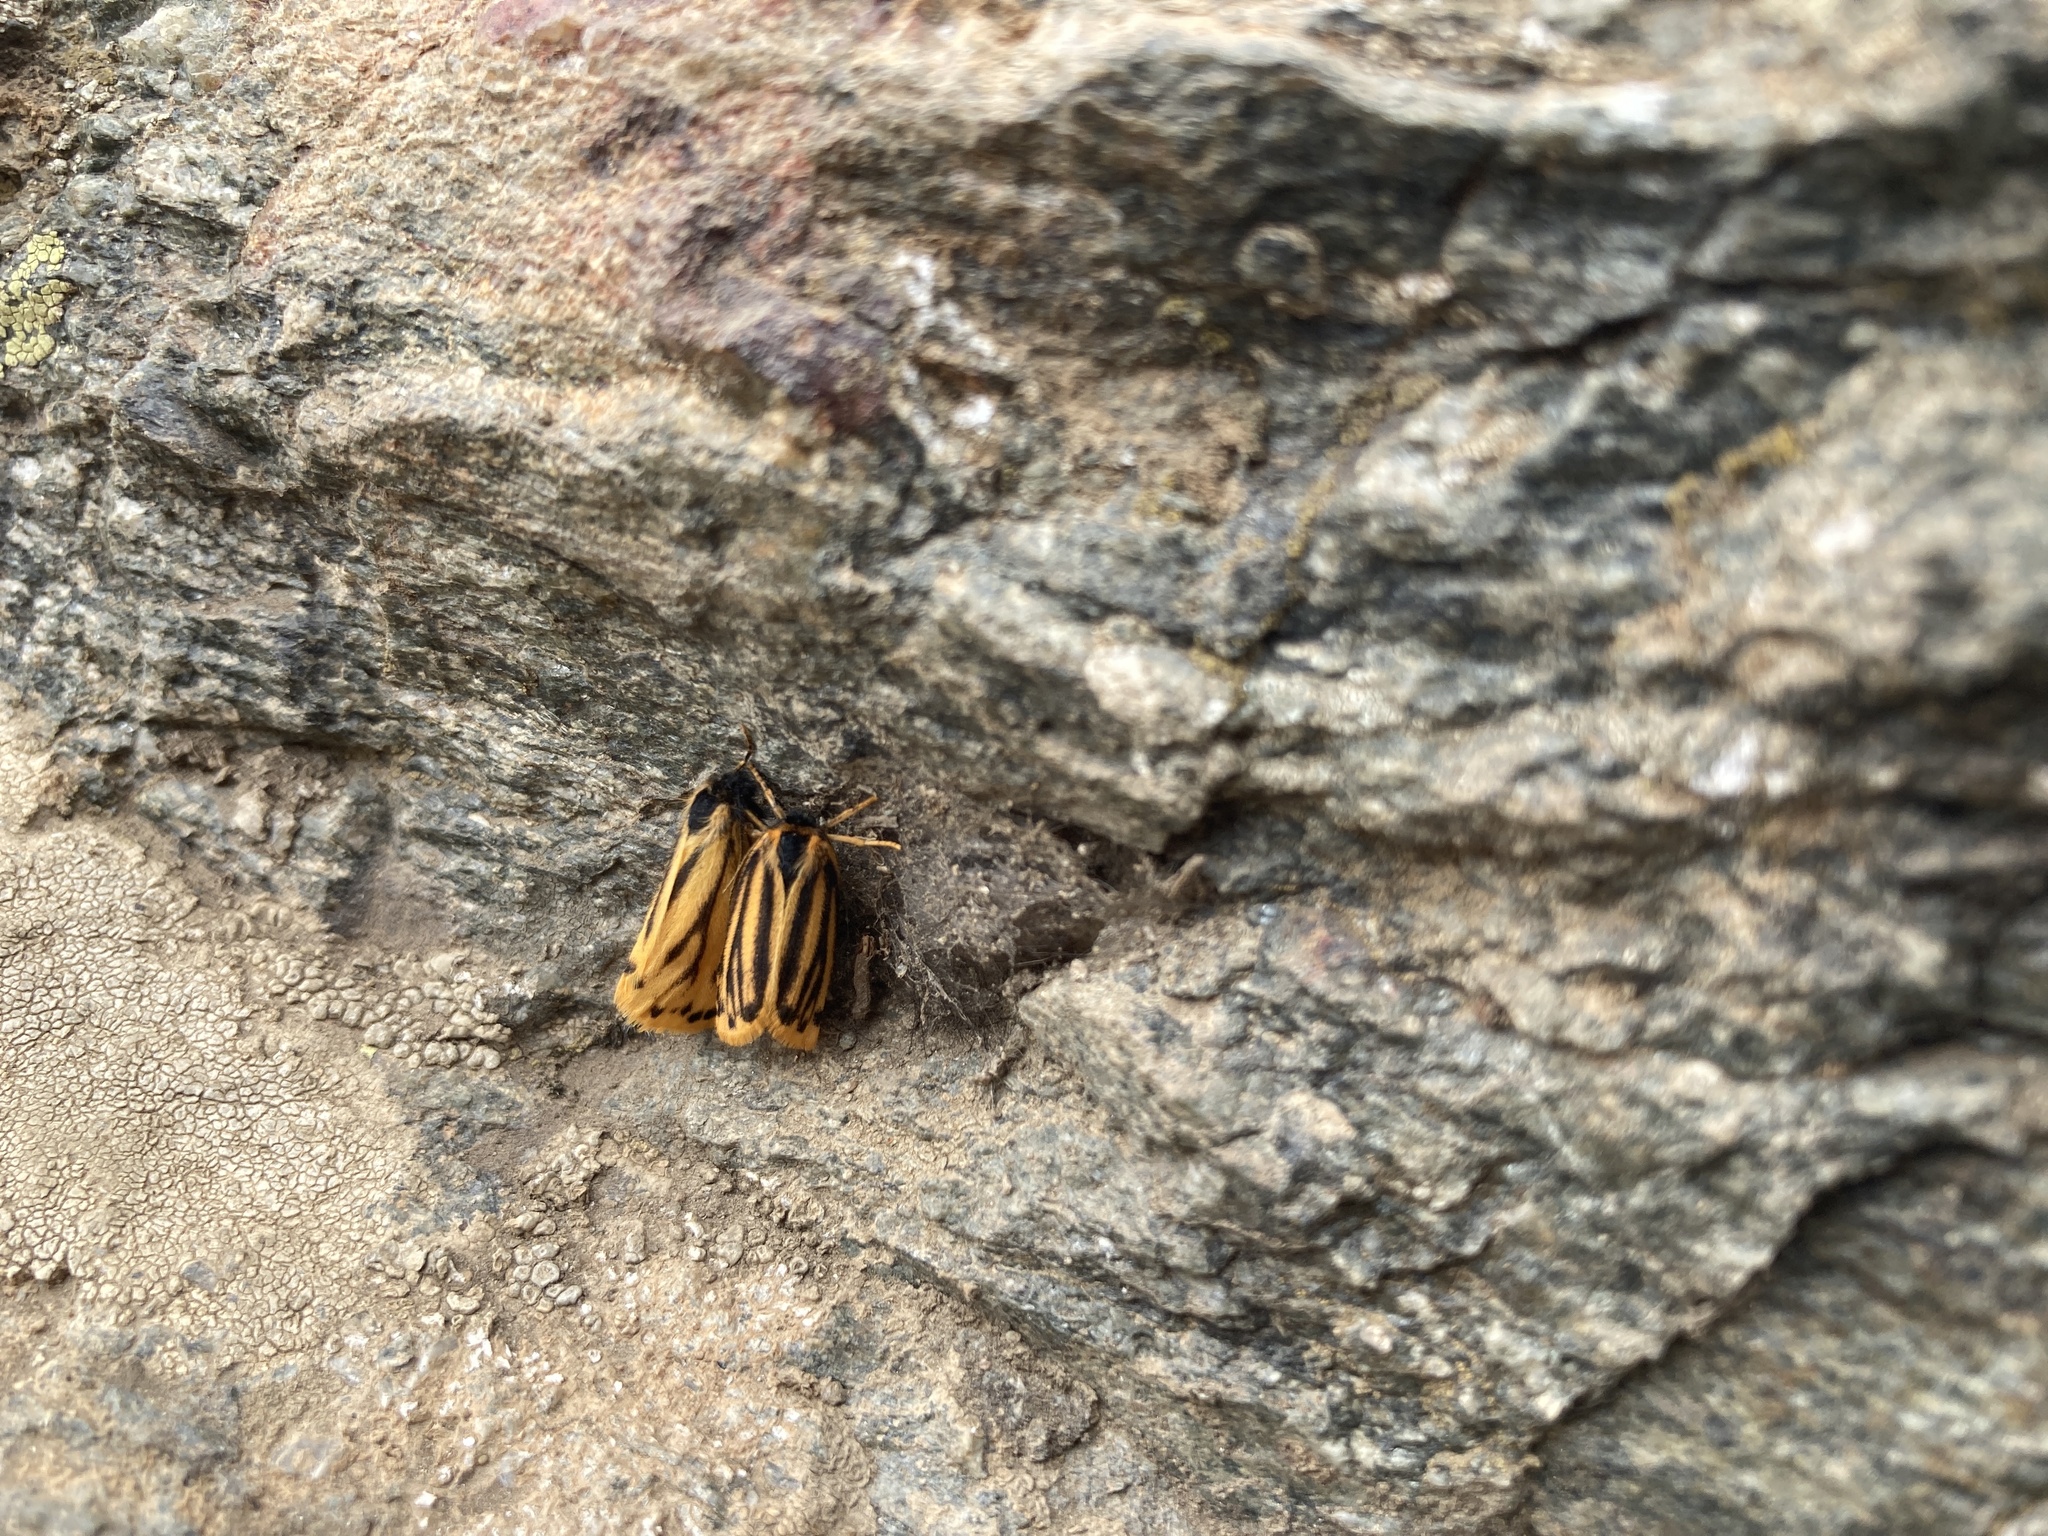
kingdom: Animalia
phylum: Arthropoda
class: Insecta
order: Lepidoptera
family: Erebidae
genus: Setina
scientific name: Setina aurita
